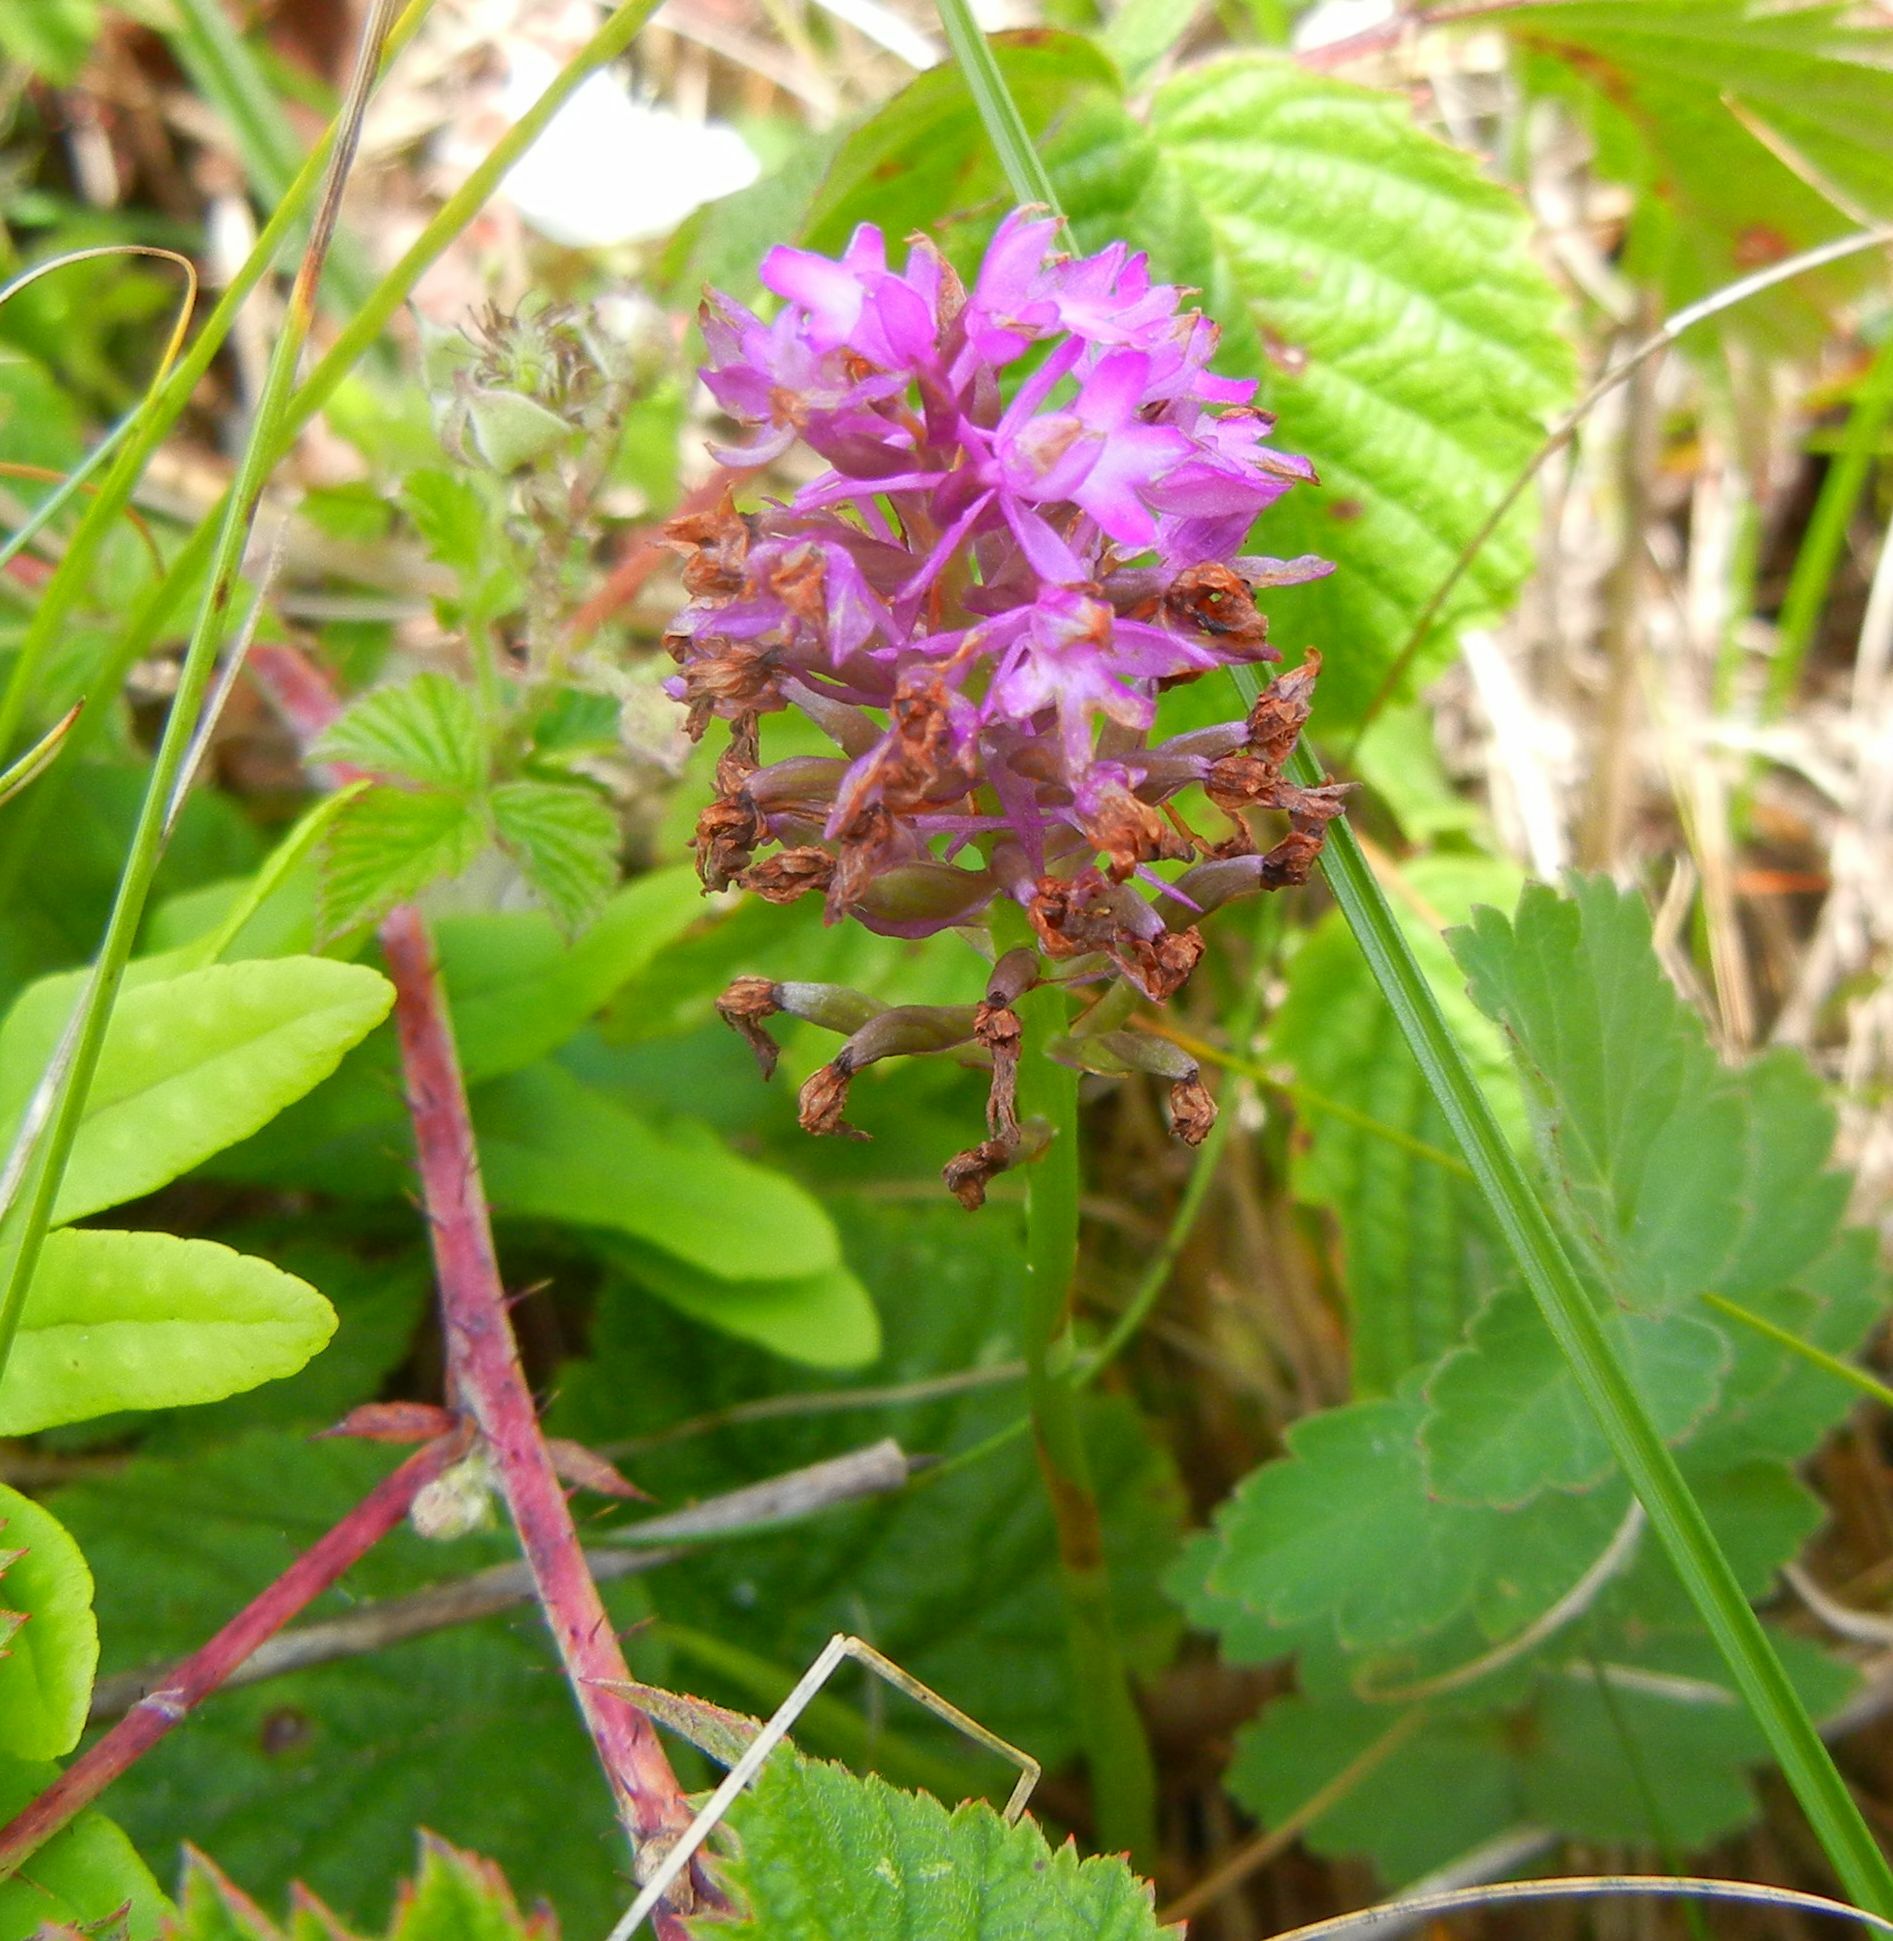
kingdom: Plantae
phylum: Tracheophyta
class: Liliopsida
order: Asparagales
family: Orchidaceae
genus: Anacamptis
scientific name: Anacamptis pyramidalis
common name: Pyramidal orchid
